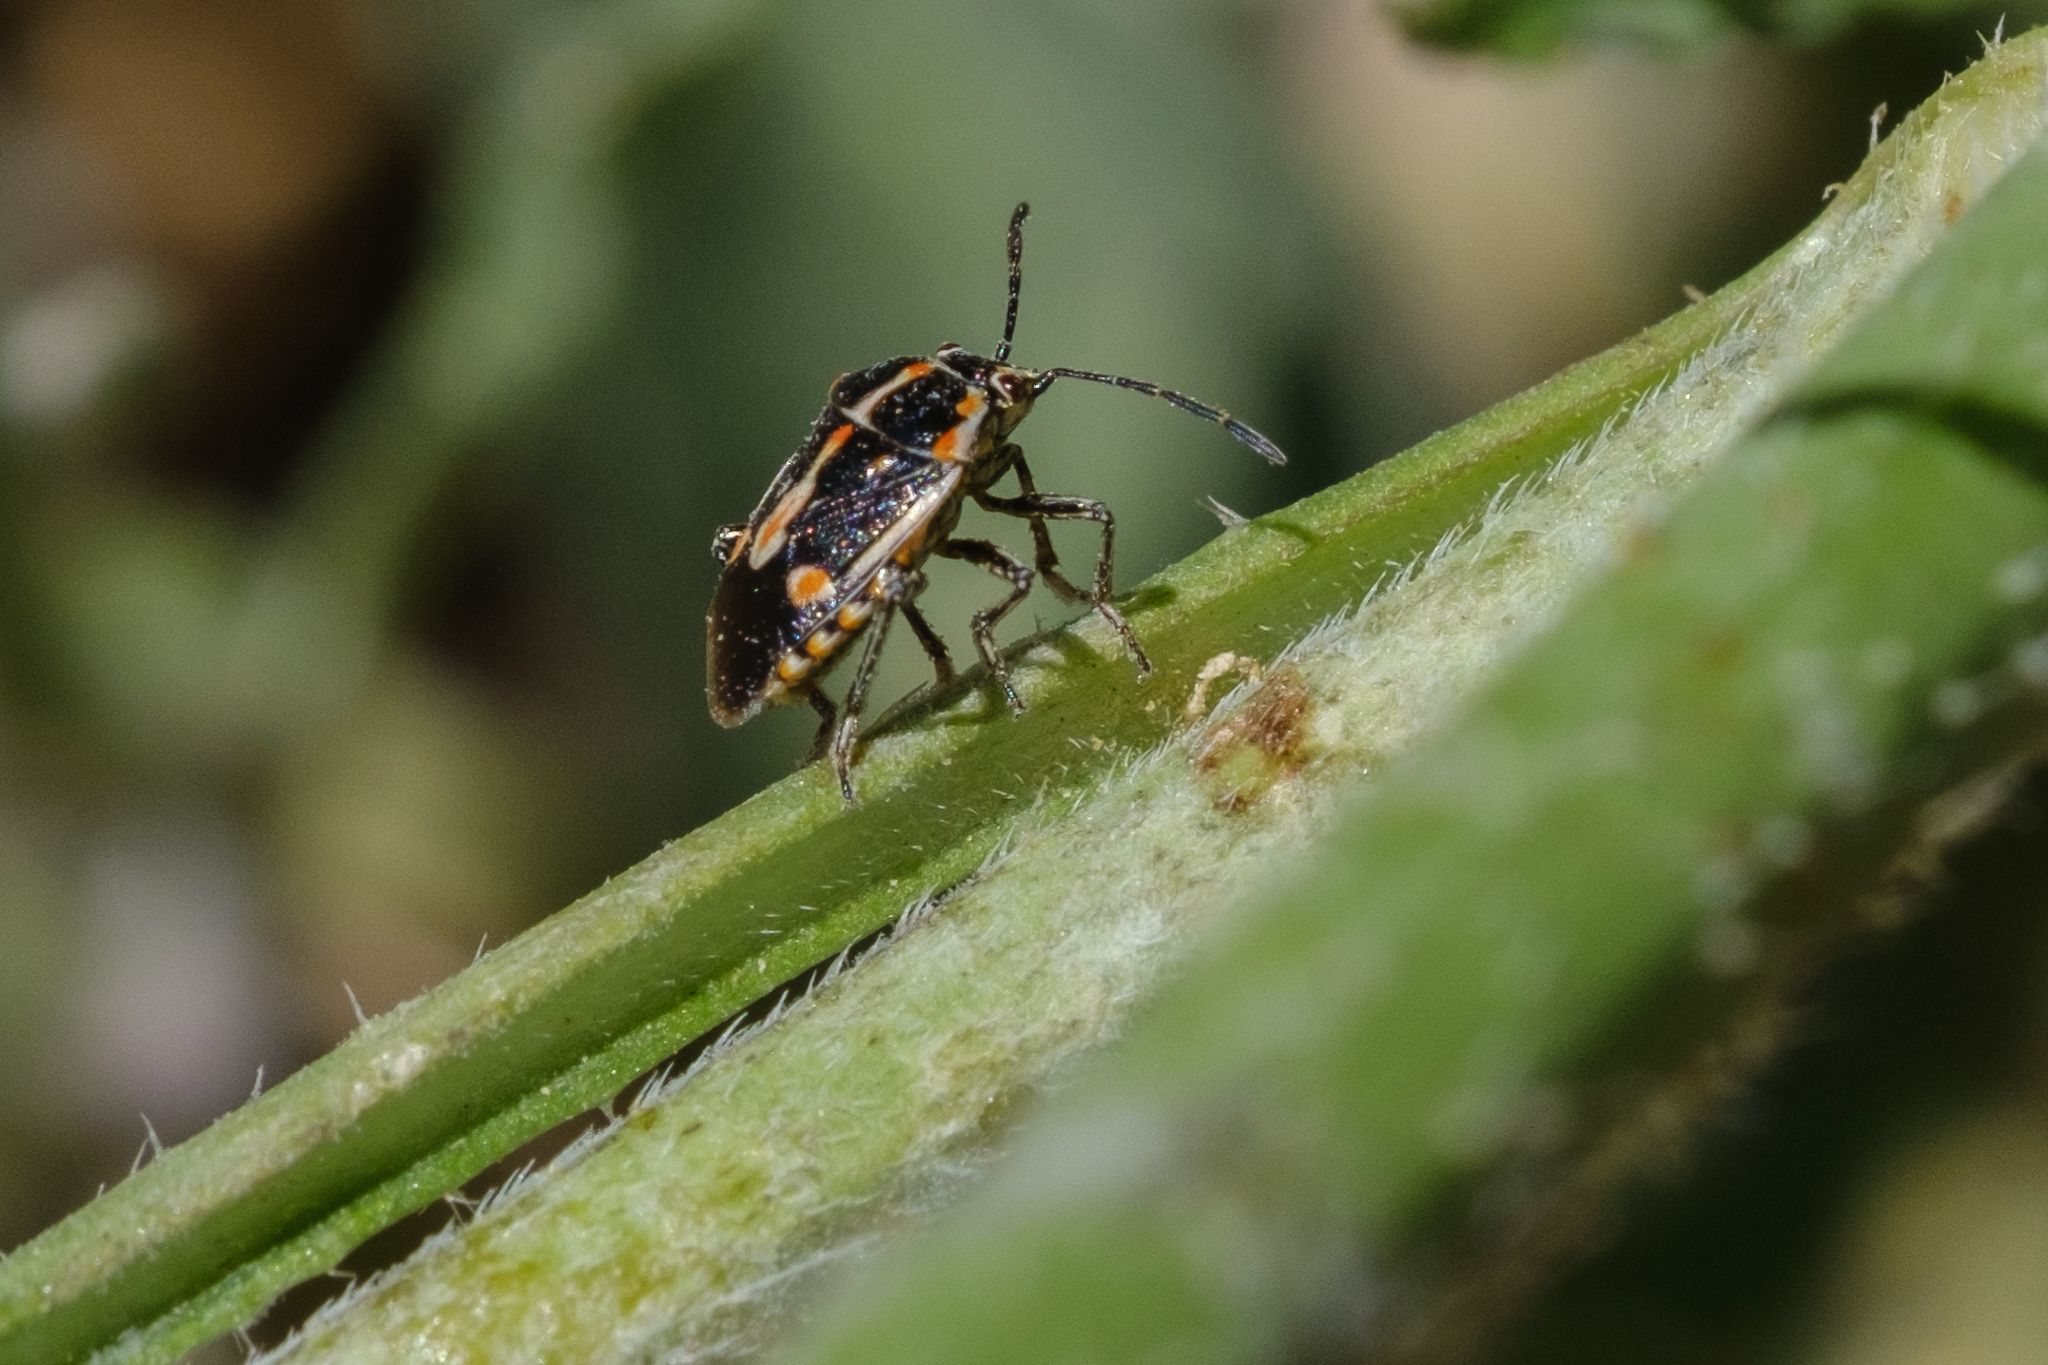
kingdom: Animalia
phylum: Arthropoda
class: Insecta
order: Hemiptera
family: Pentatomidae
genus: Bagrada
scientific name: Bagrada hilaris
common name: Bagrada bug
